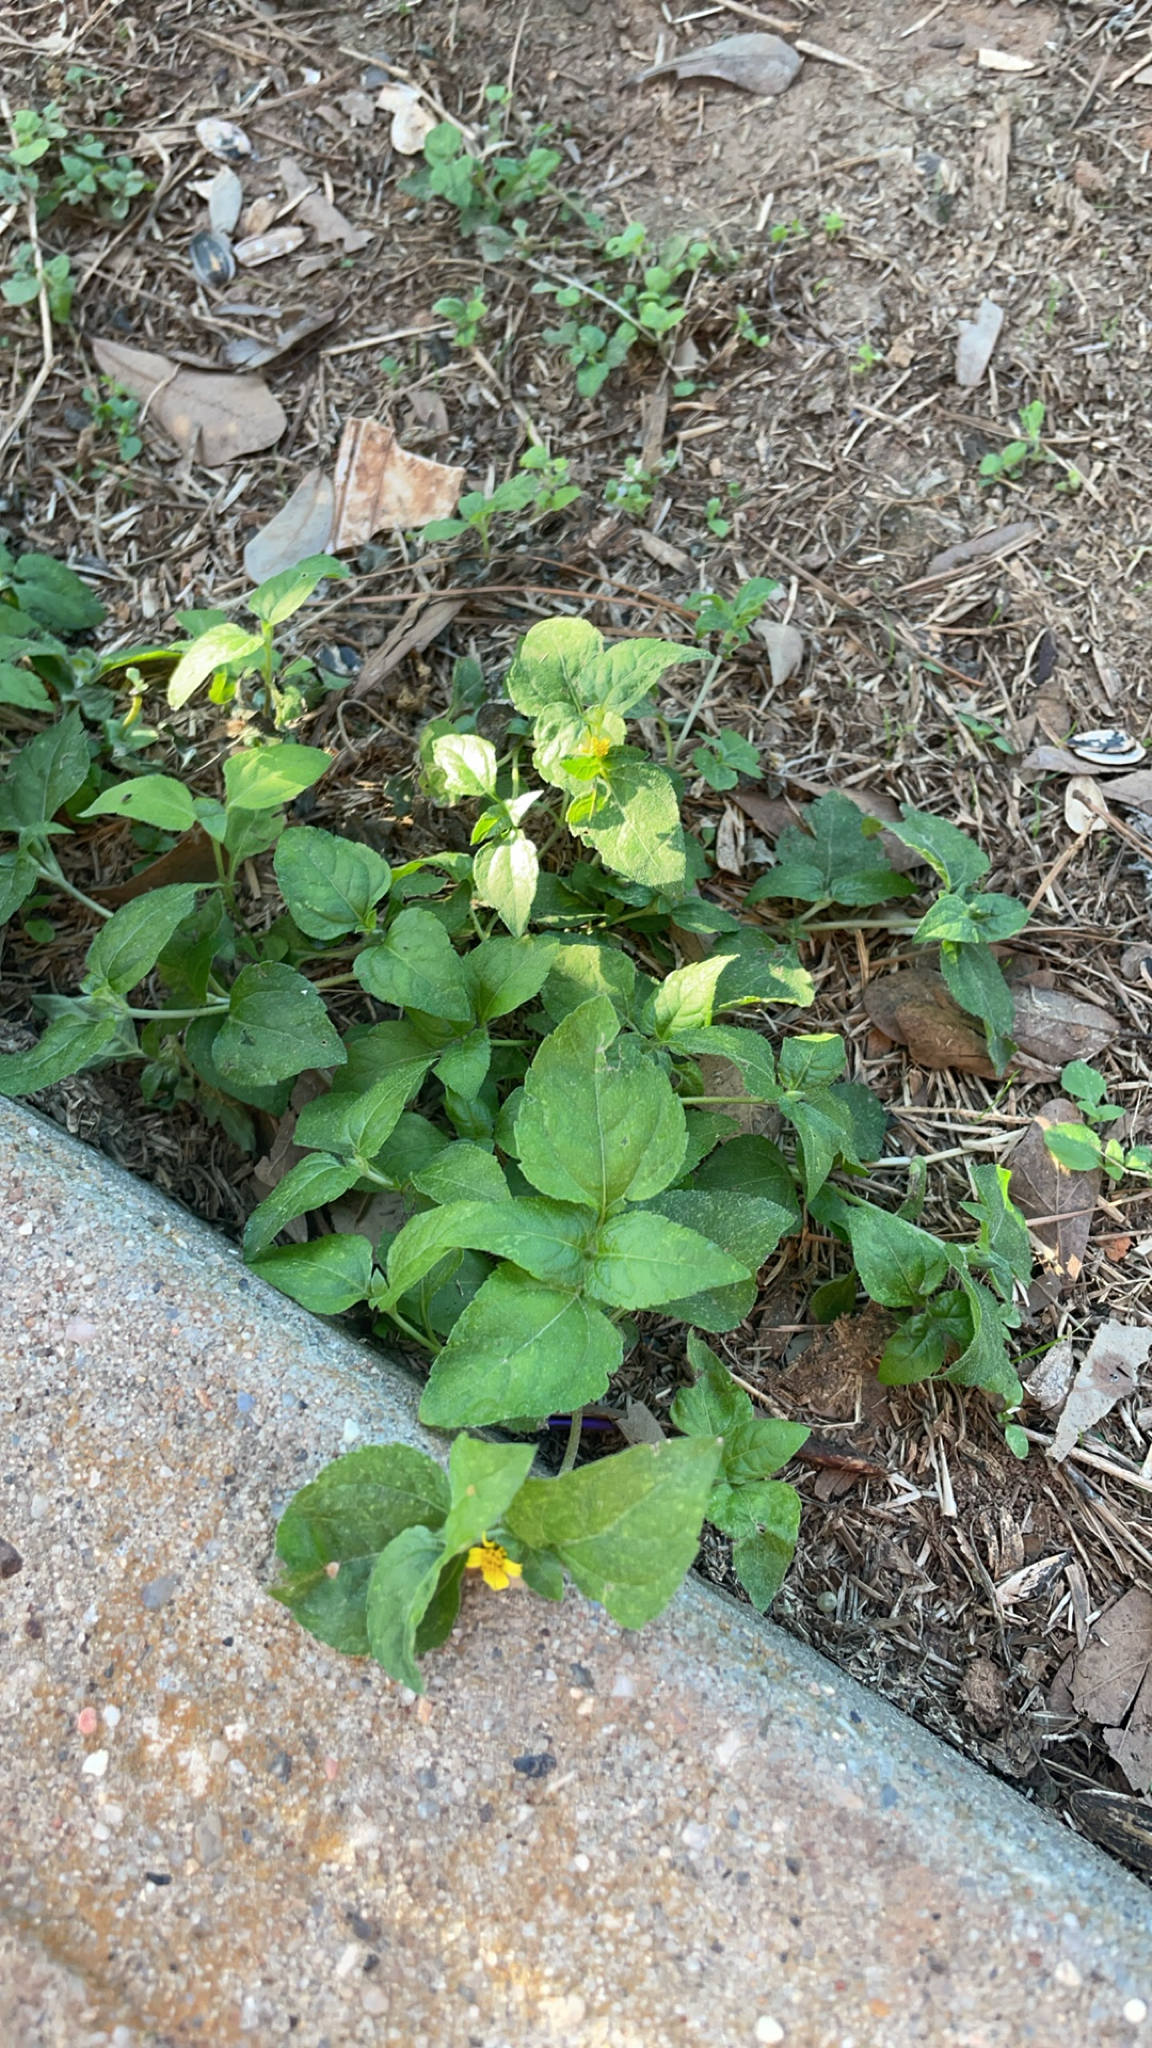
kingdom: Plantae
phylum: Tracheophyta
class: Magnoliopsida
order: Asterales
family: Asteraceae
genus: Calyptocarpus
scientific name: Calyptocarpus vialis
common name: Straggler daisy
